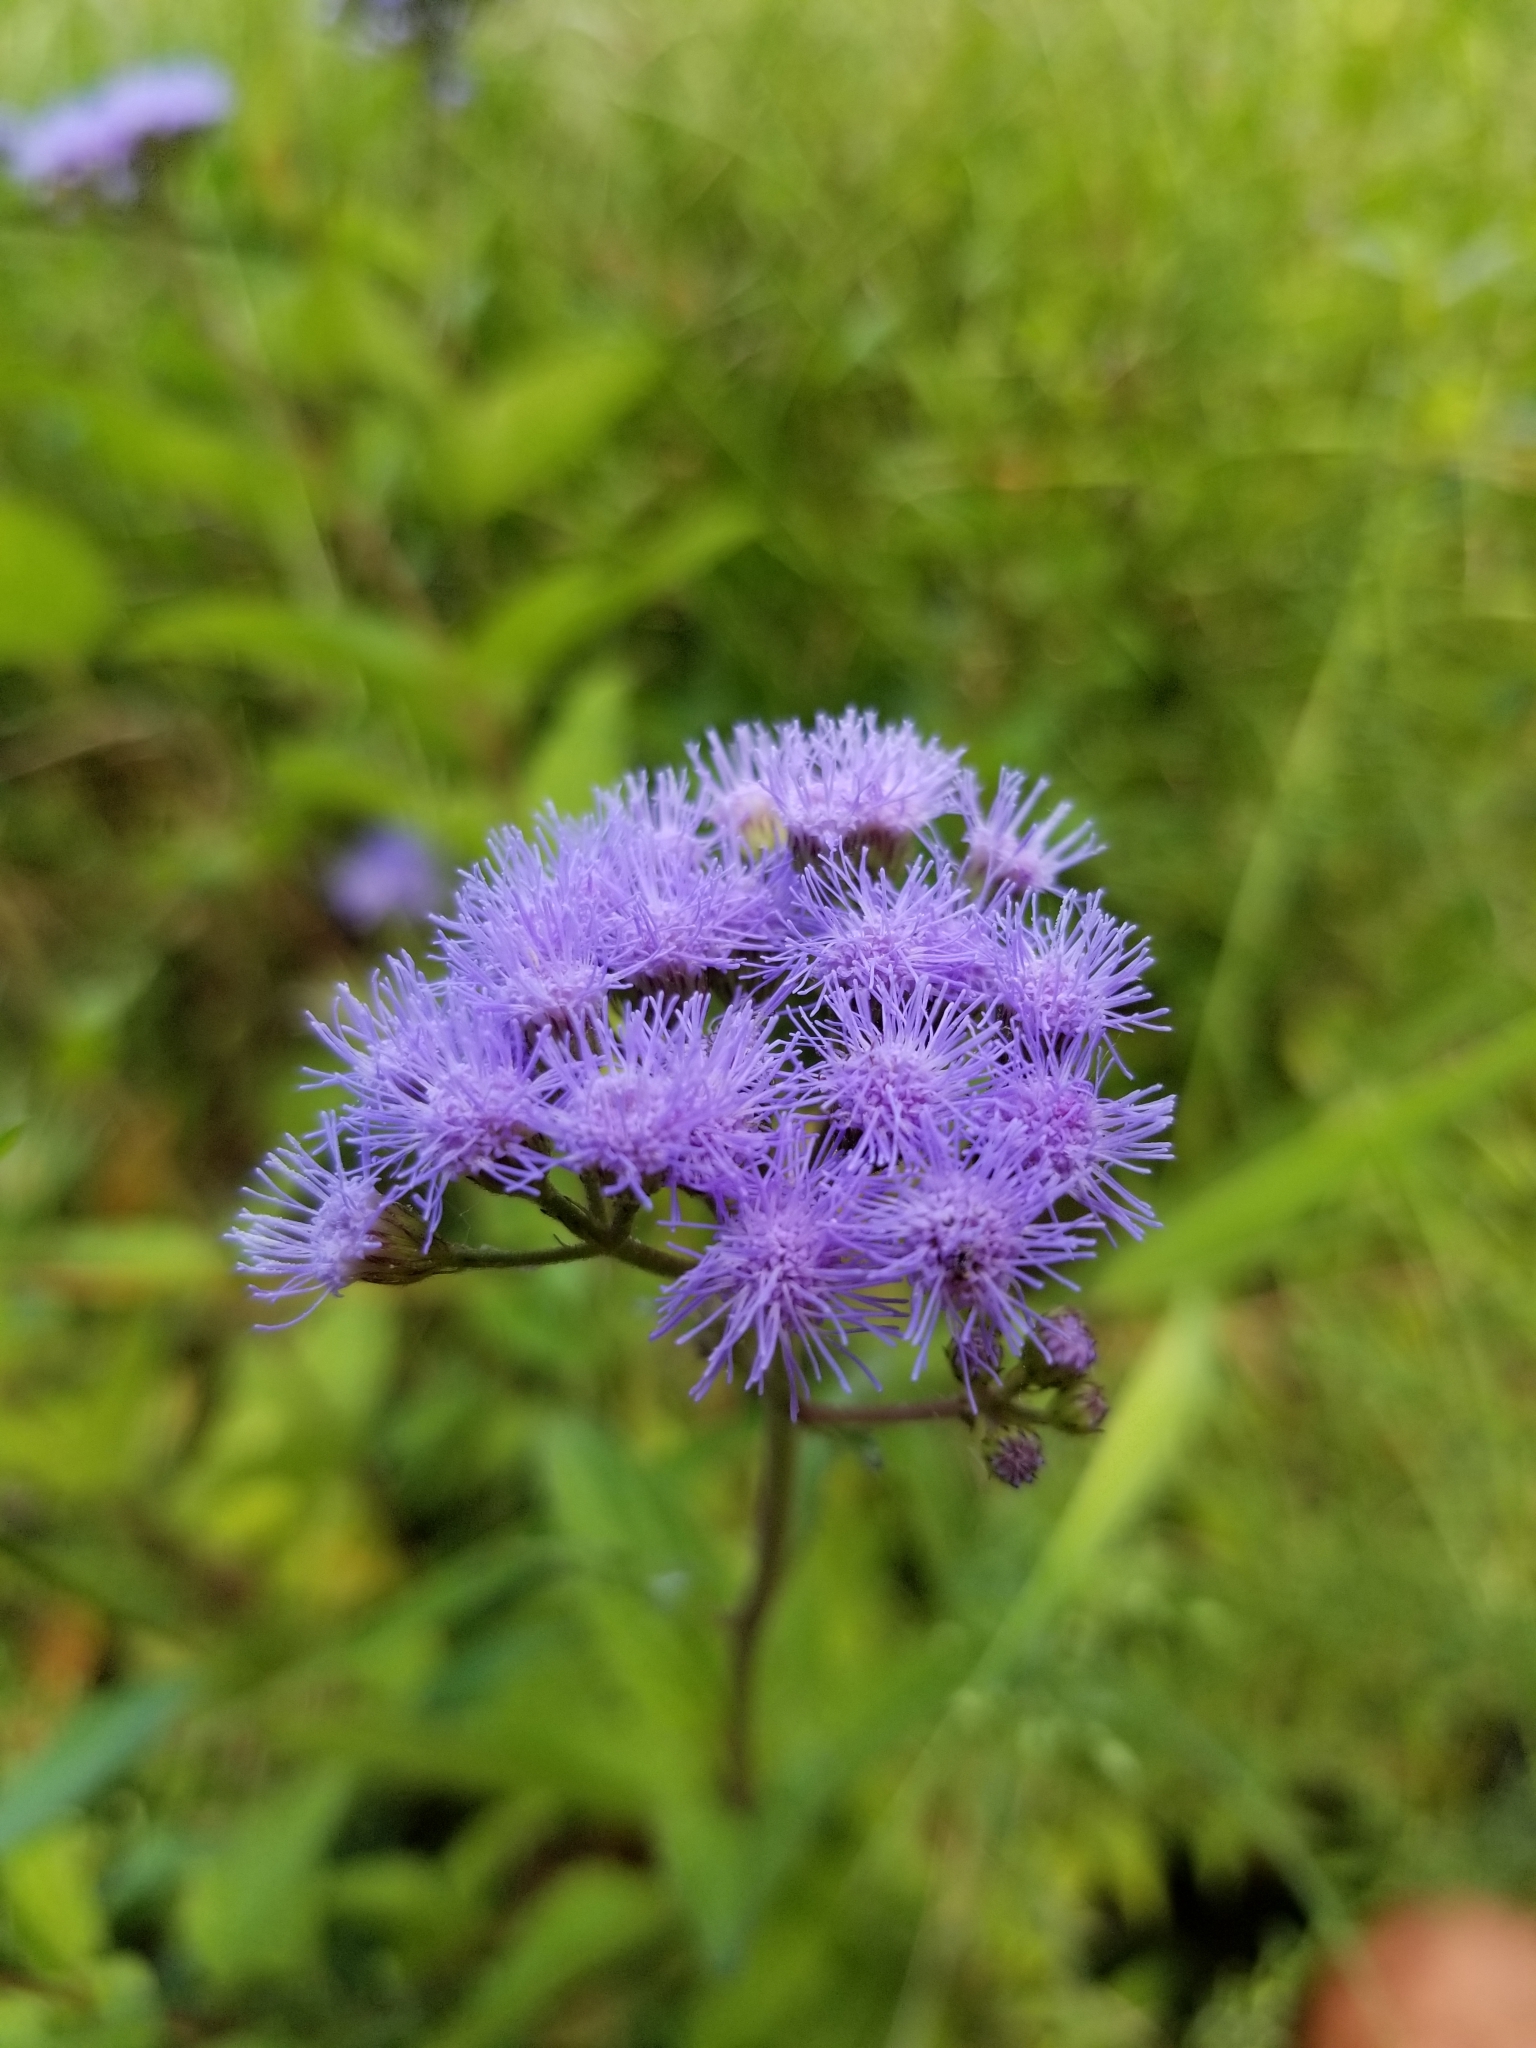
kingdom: Plantae
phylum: Tracheophyta
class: Magnoliopsida
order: Asterales
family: Asteraceae
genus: Conoclinium
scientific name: Conoclinium coelestinum
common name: Blue mistflower
